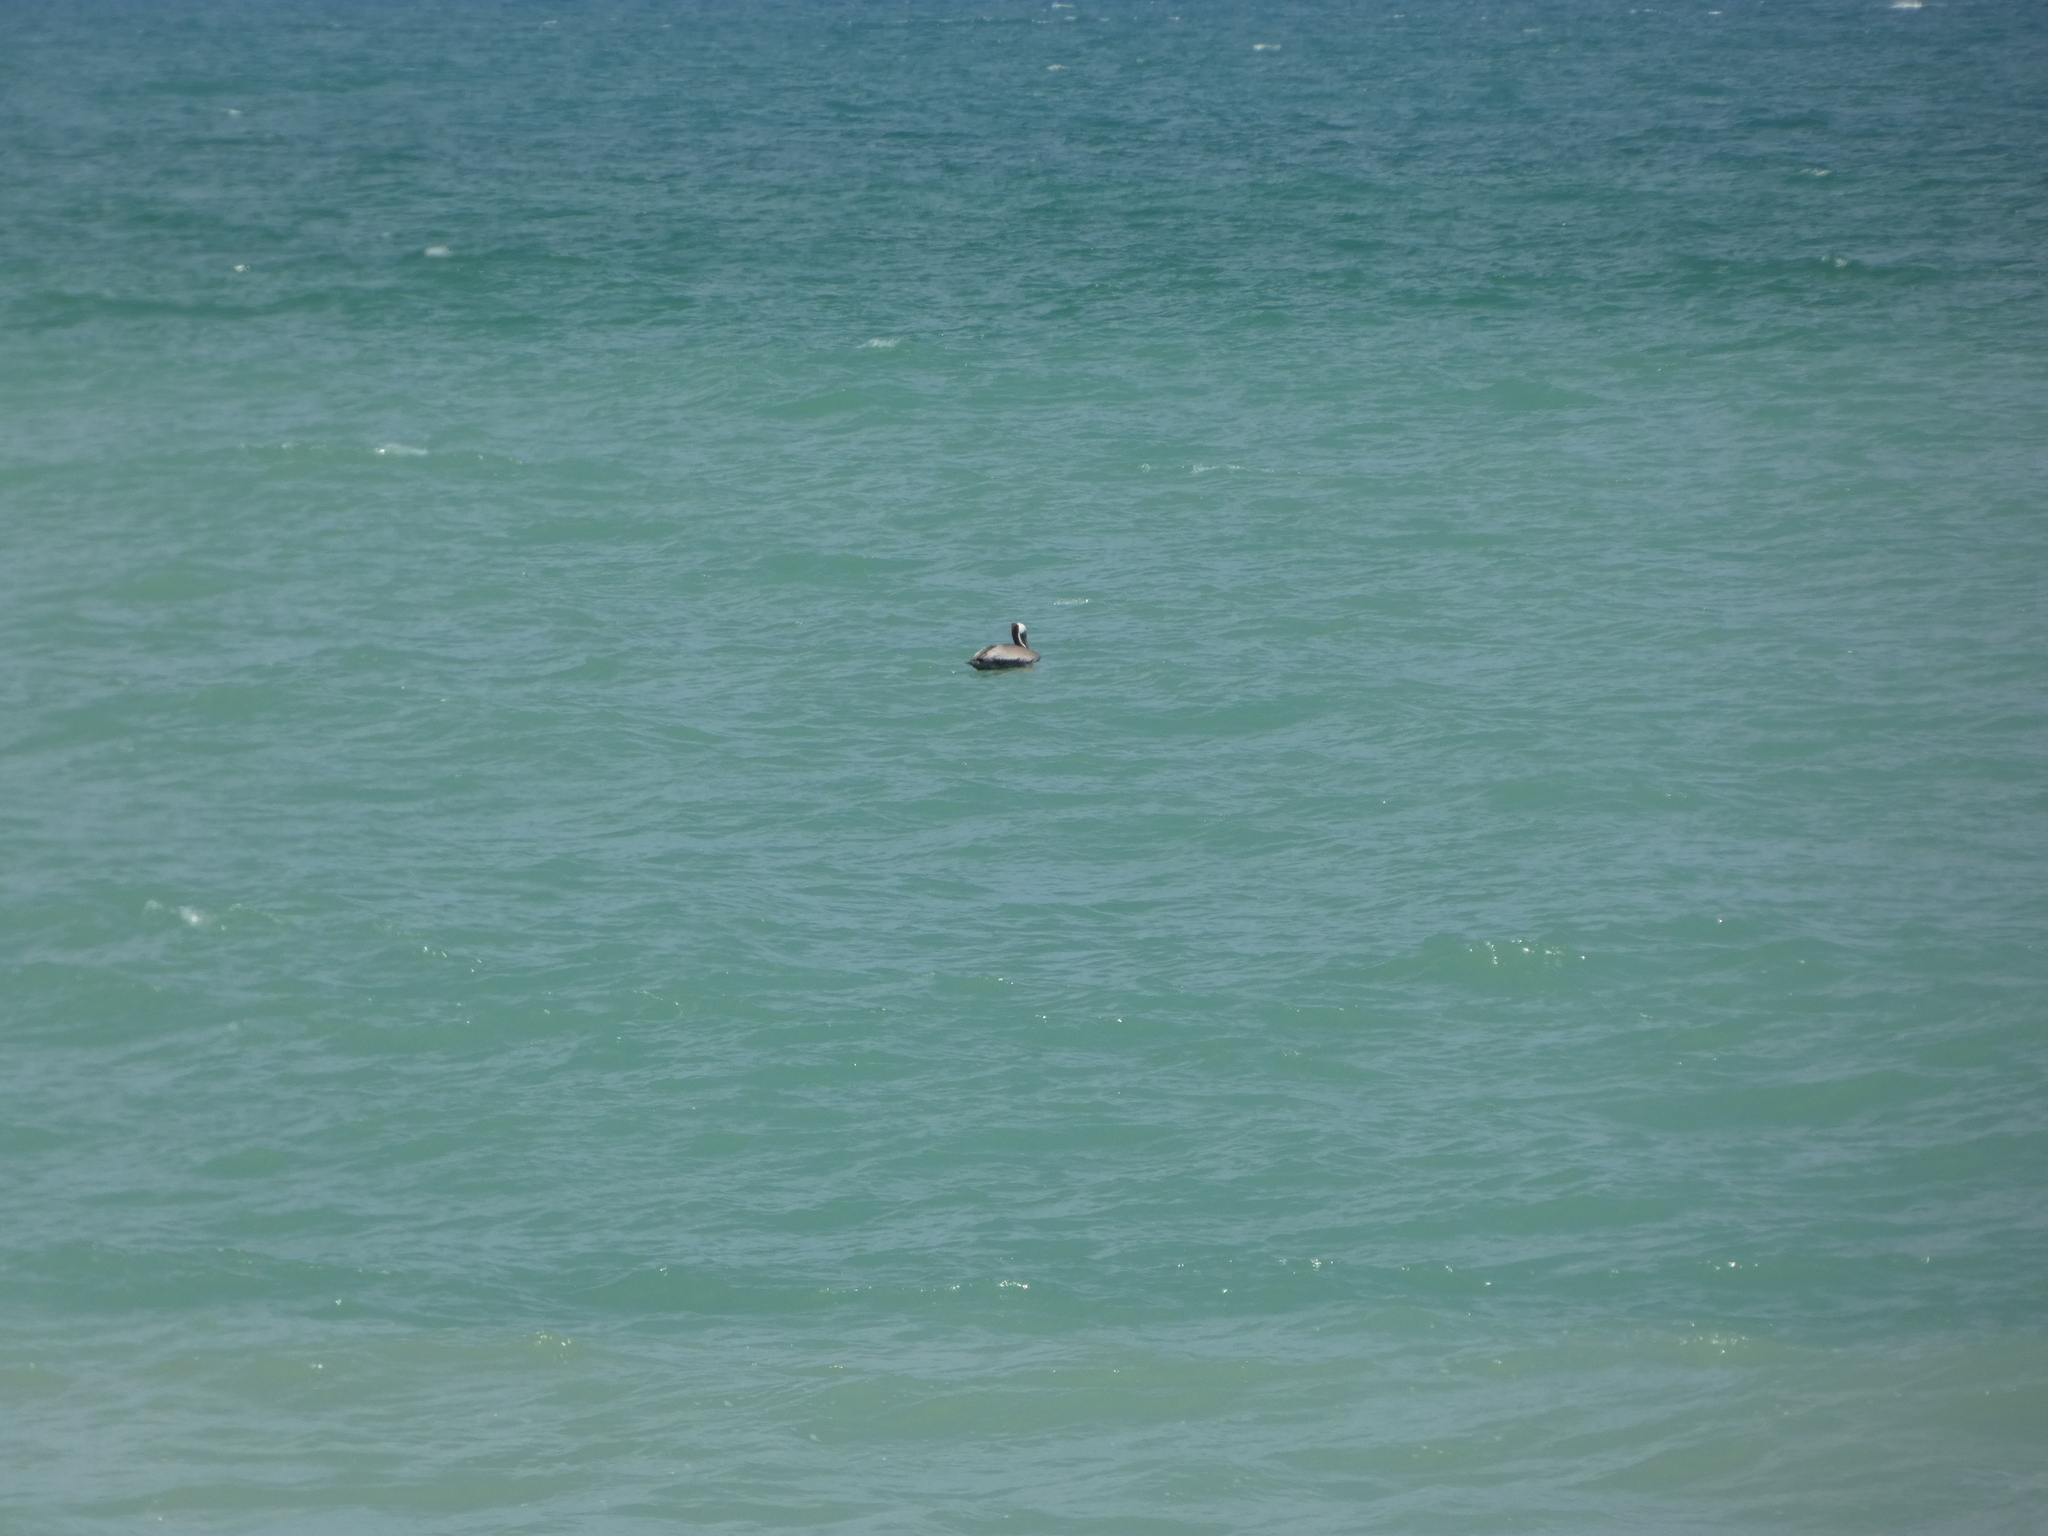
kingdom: Animalia
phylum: Chordata
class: Aves
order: Pelecaniformes
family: Pelecanidae
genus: Pelecanus
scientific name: Pelecanus occidentalis
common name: Brown pelican
